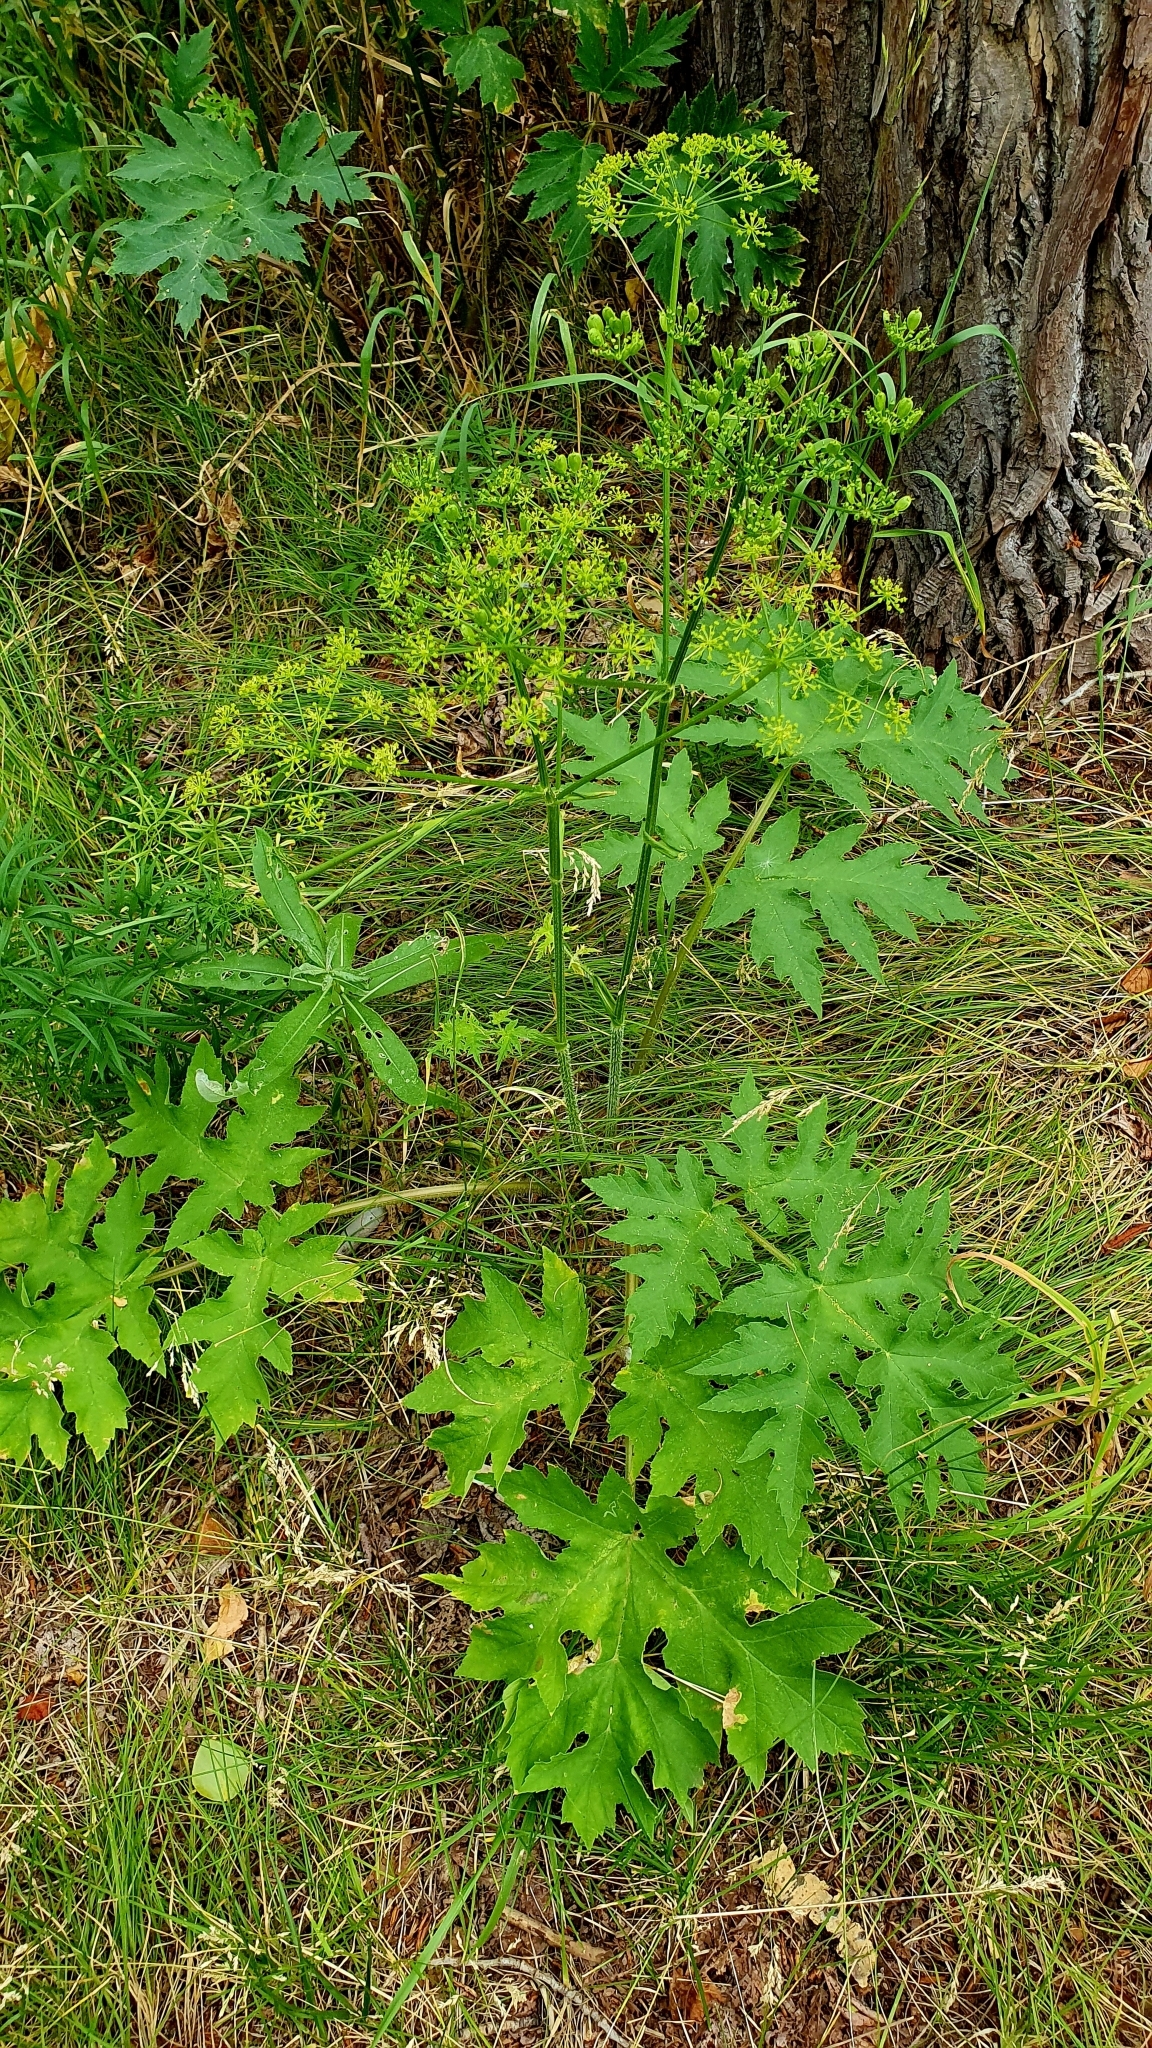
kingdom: Plantae
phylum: Tracheophyta
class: Magnoliopsida
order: Apiales
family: Apiaceae
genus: Heracleum
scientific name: Heracleum sphondylium
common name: Hogweed
